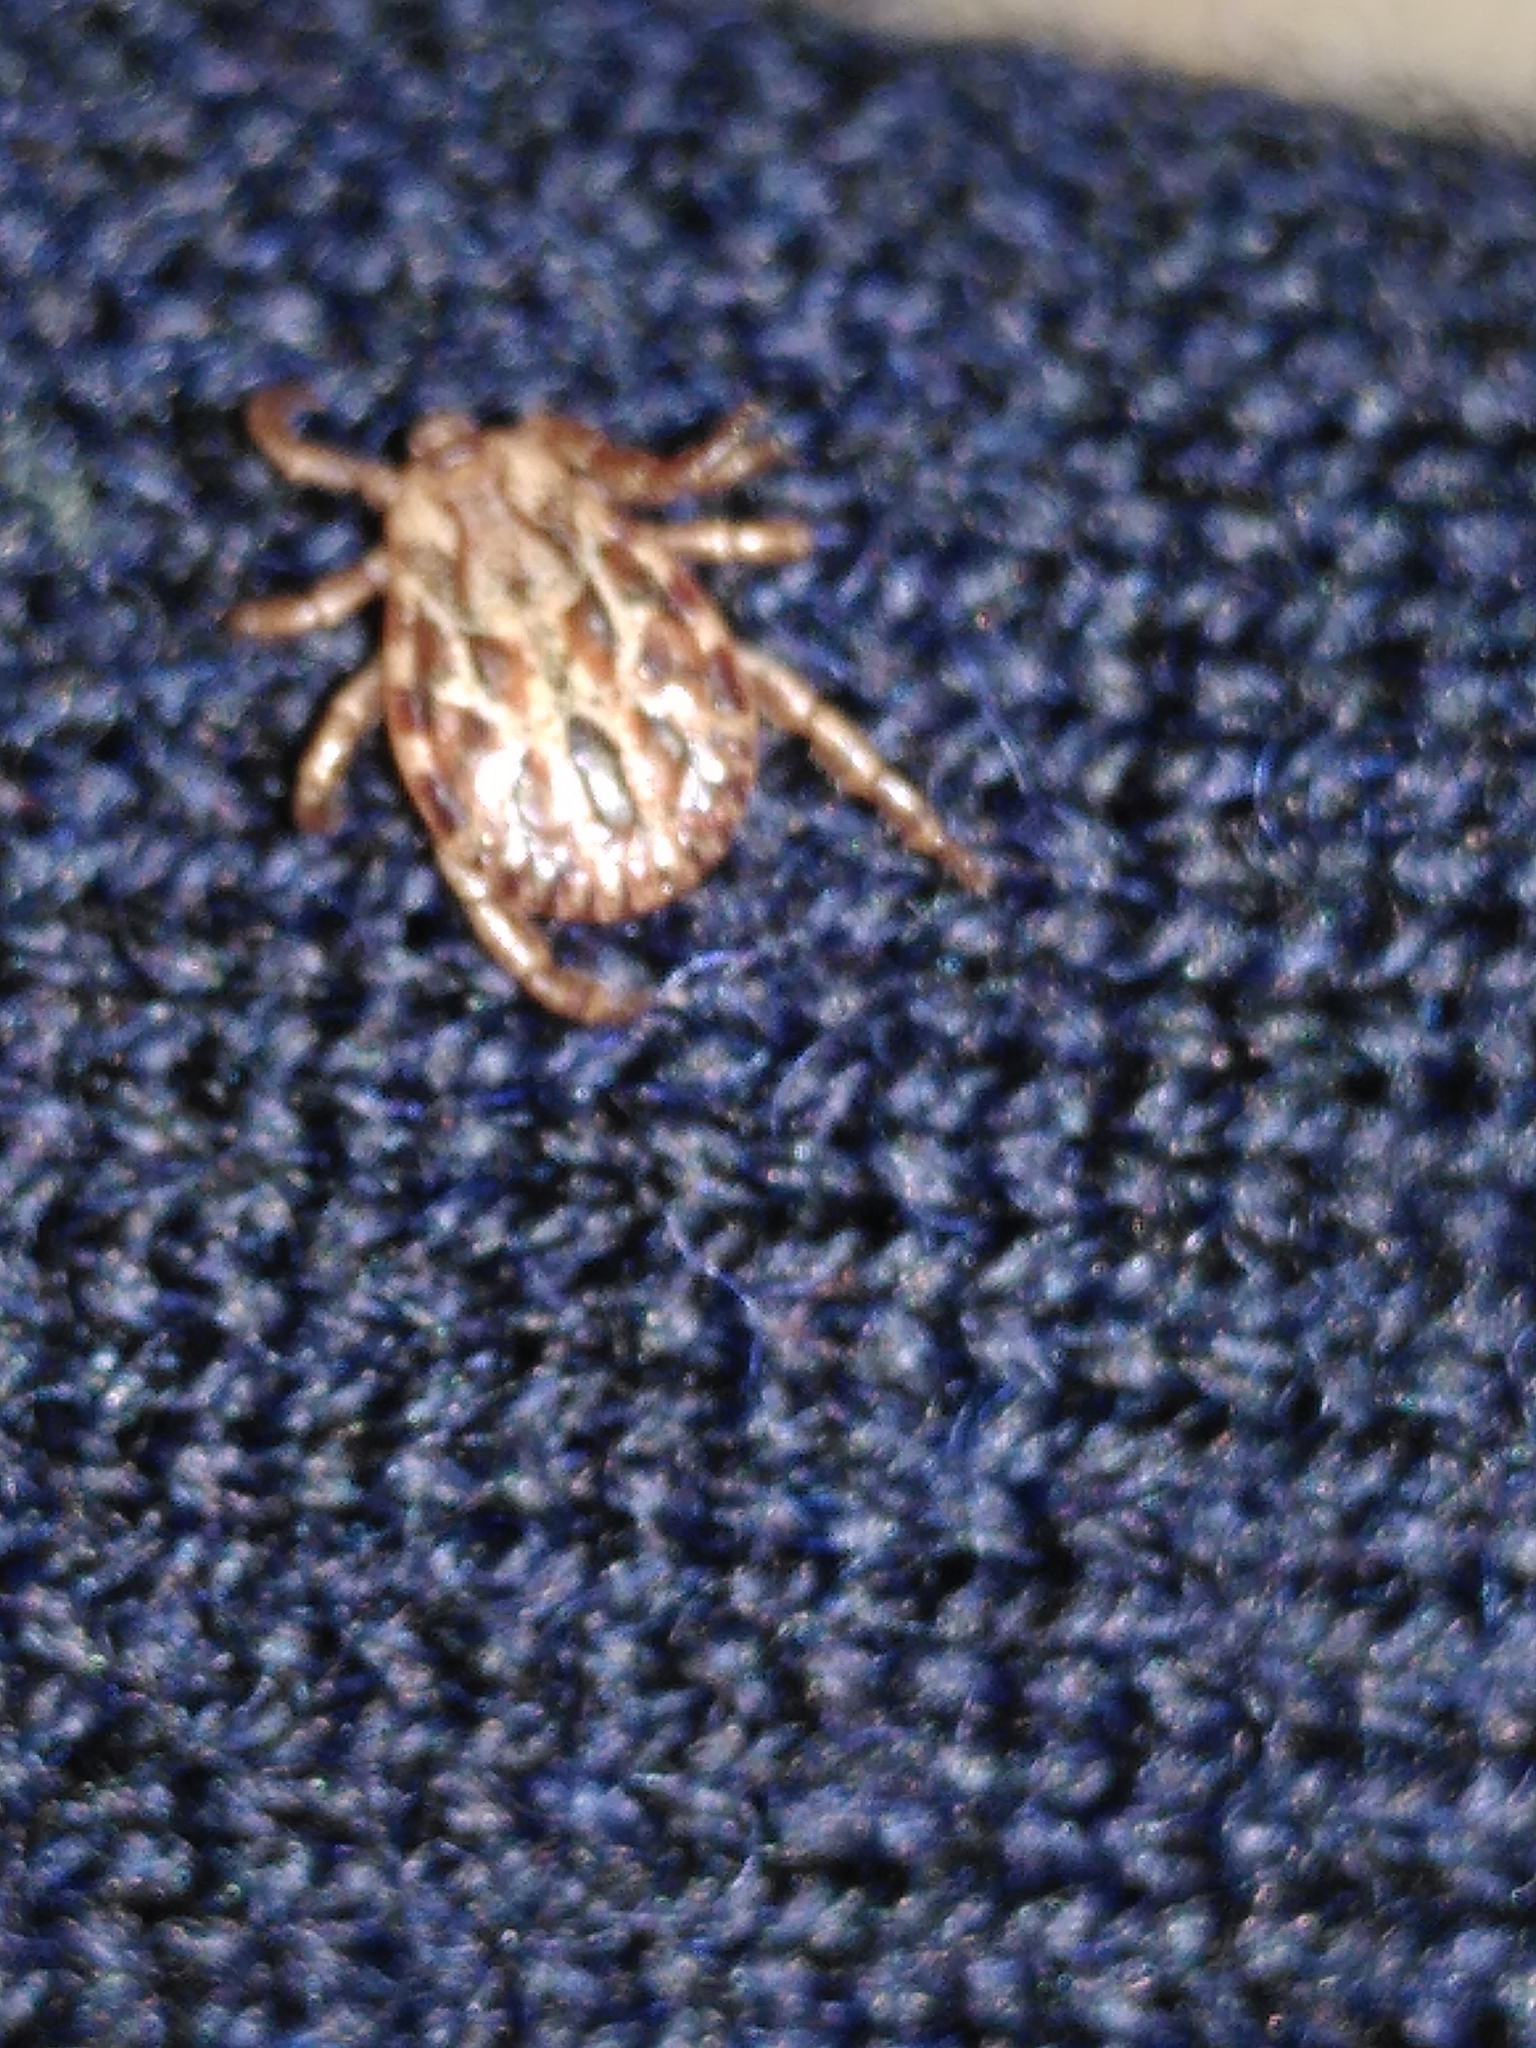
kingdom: Animalia
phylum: Arthropoda
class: Arachnida
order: Ixodida
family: Ixodidae
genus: Dermacentor
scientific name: Dermacentor marginatus
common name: Ornate sheep tick
